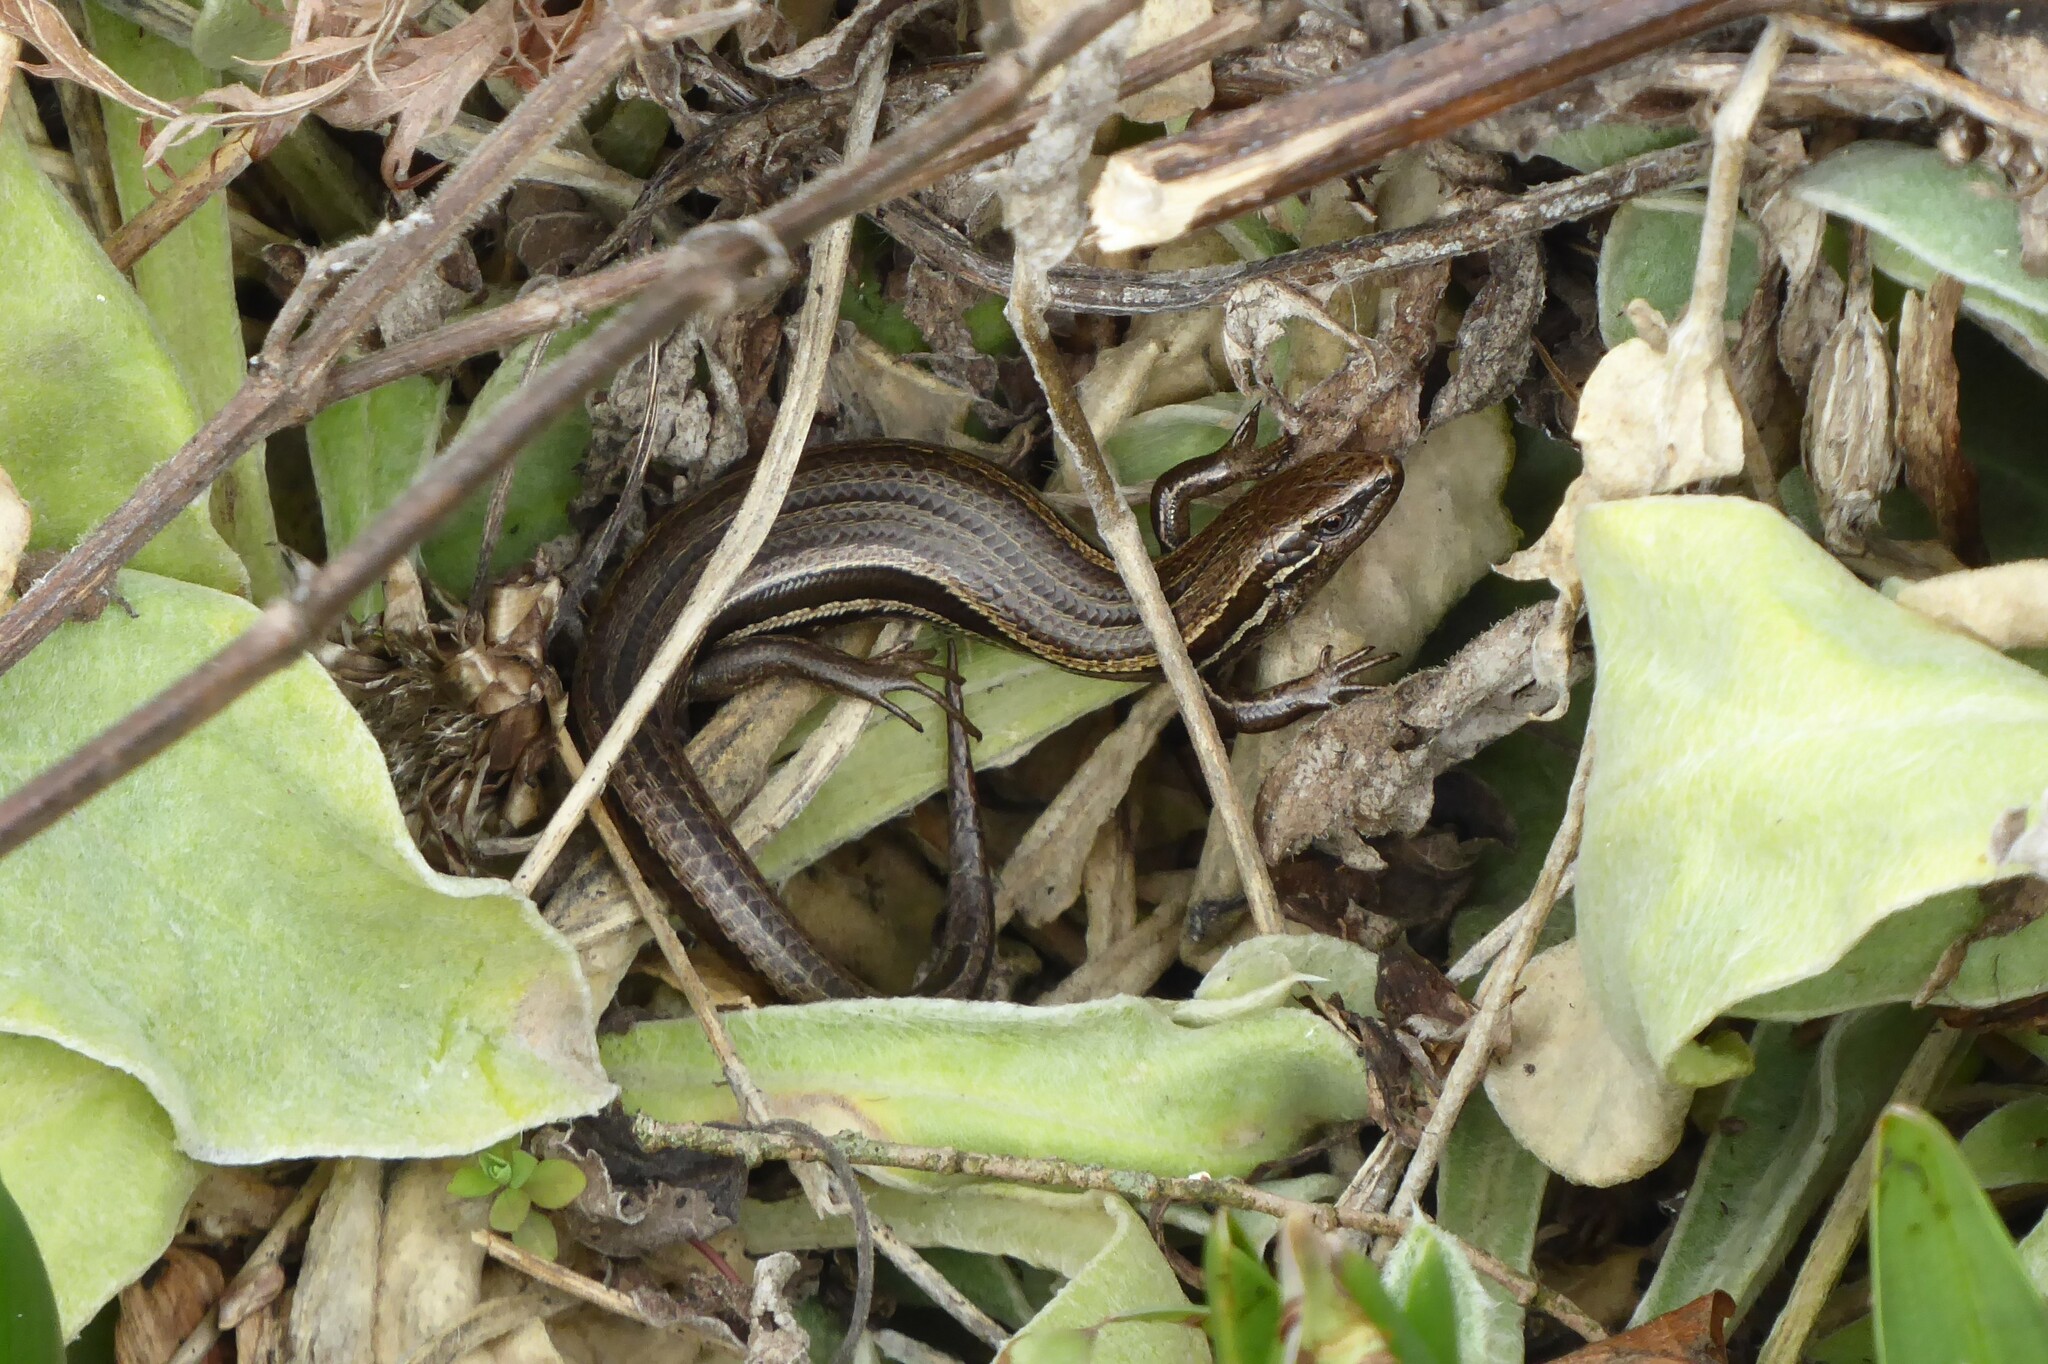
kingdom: Animalia
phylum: Chordata
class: Squamata
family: Scincidae
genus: Oligosoma
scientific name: Oligosoma polychroma
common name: Common new zealand skink
